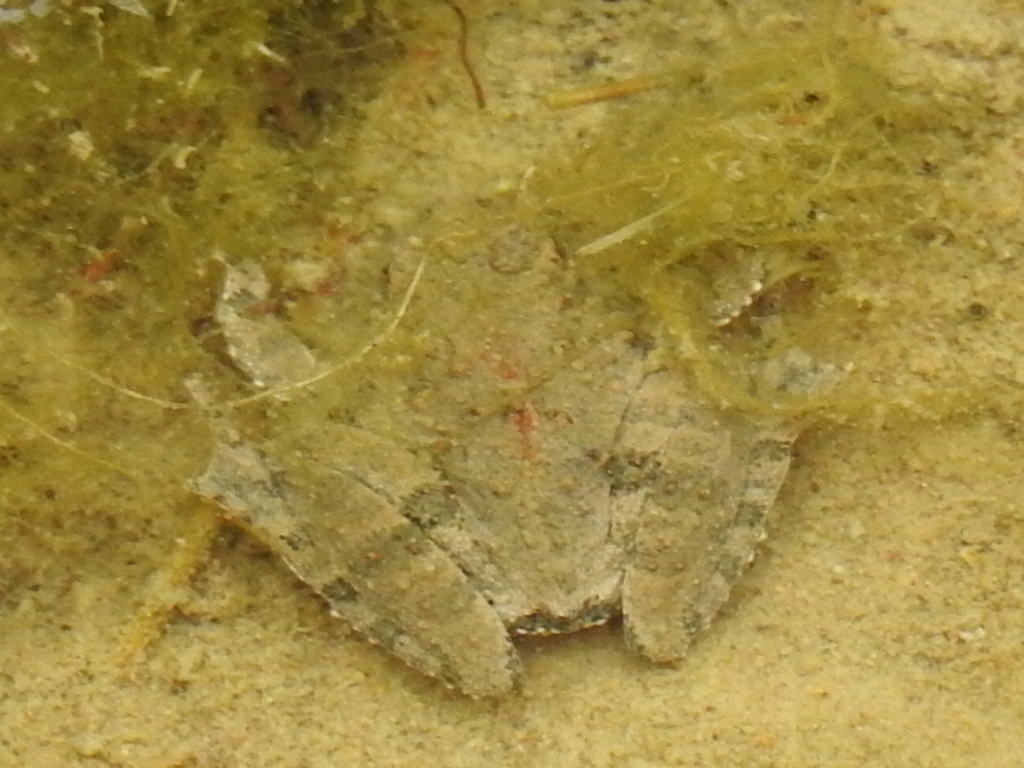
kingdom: Animalia
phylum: Chordata
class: Amphibia
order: Anura
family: Hylidae
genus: Acris
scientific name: Acris blanchardi
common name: Blanchard's cricket frog
